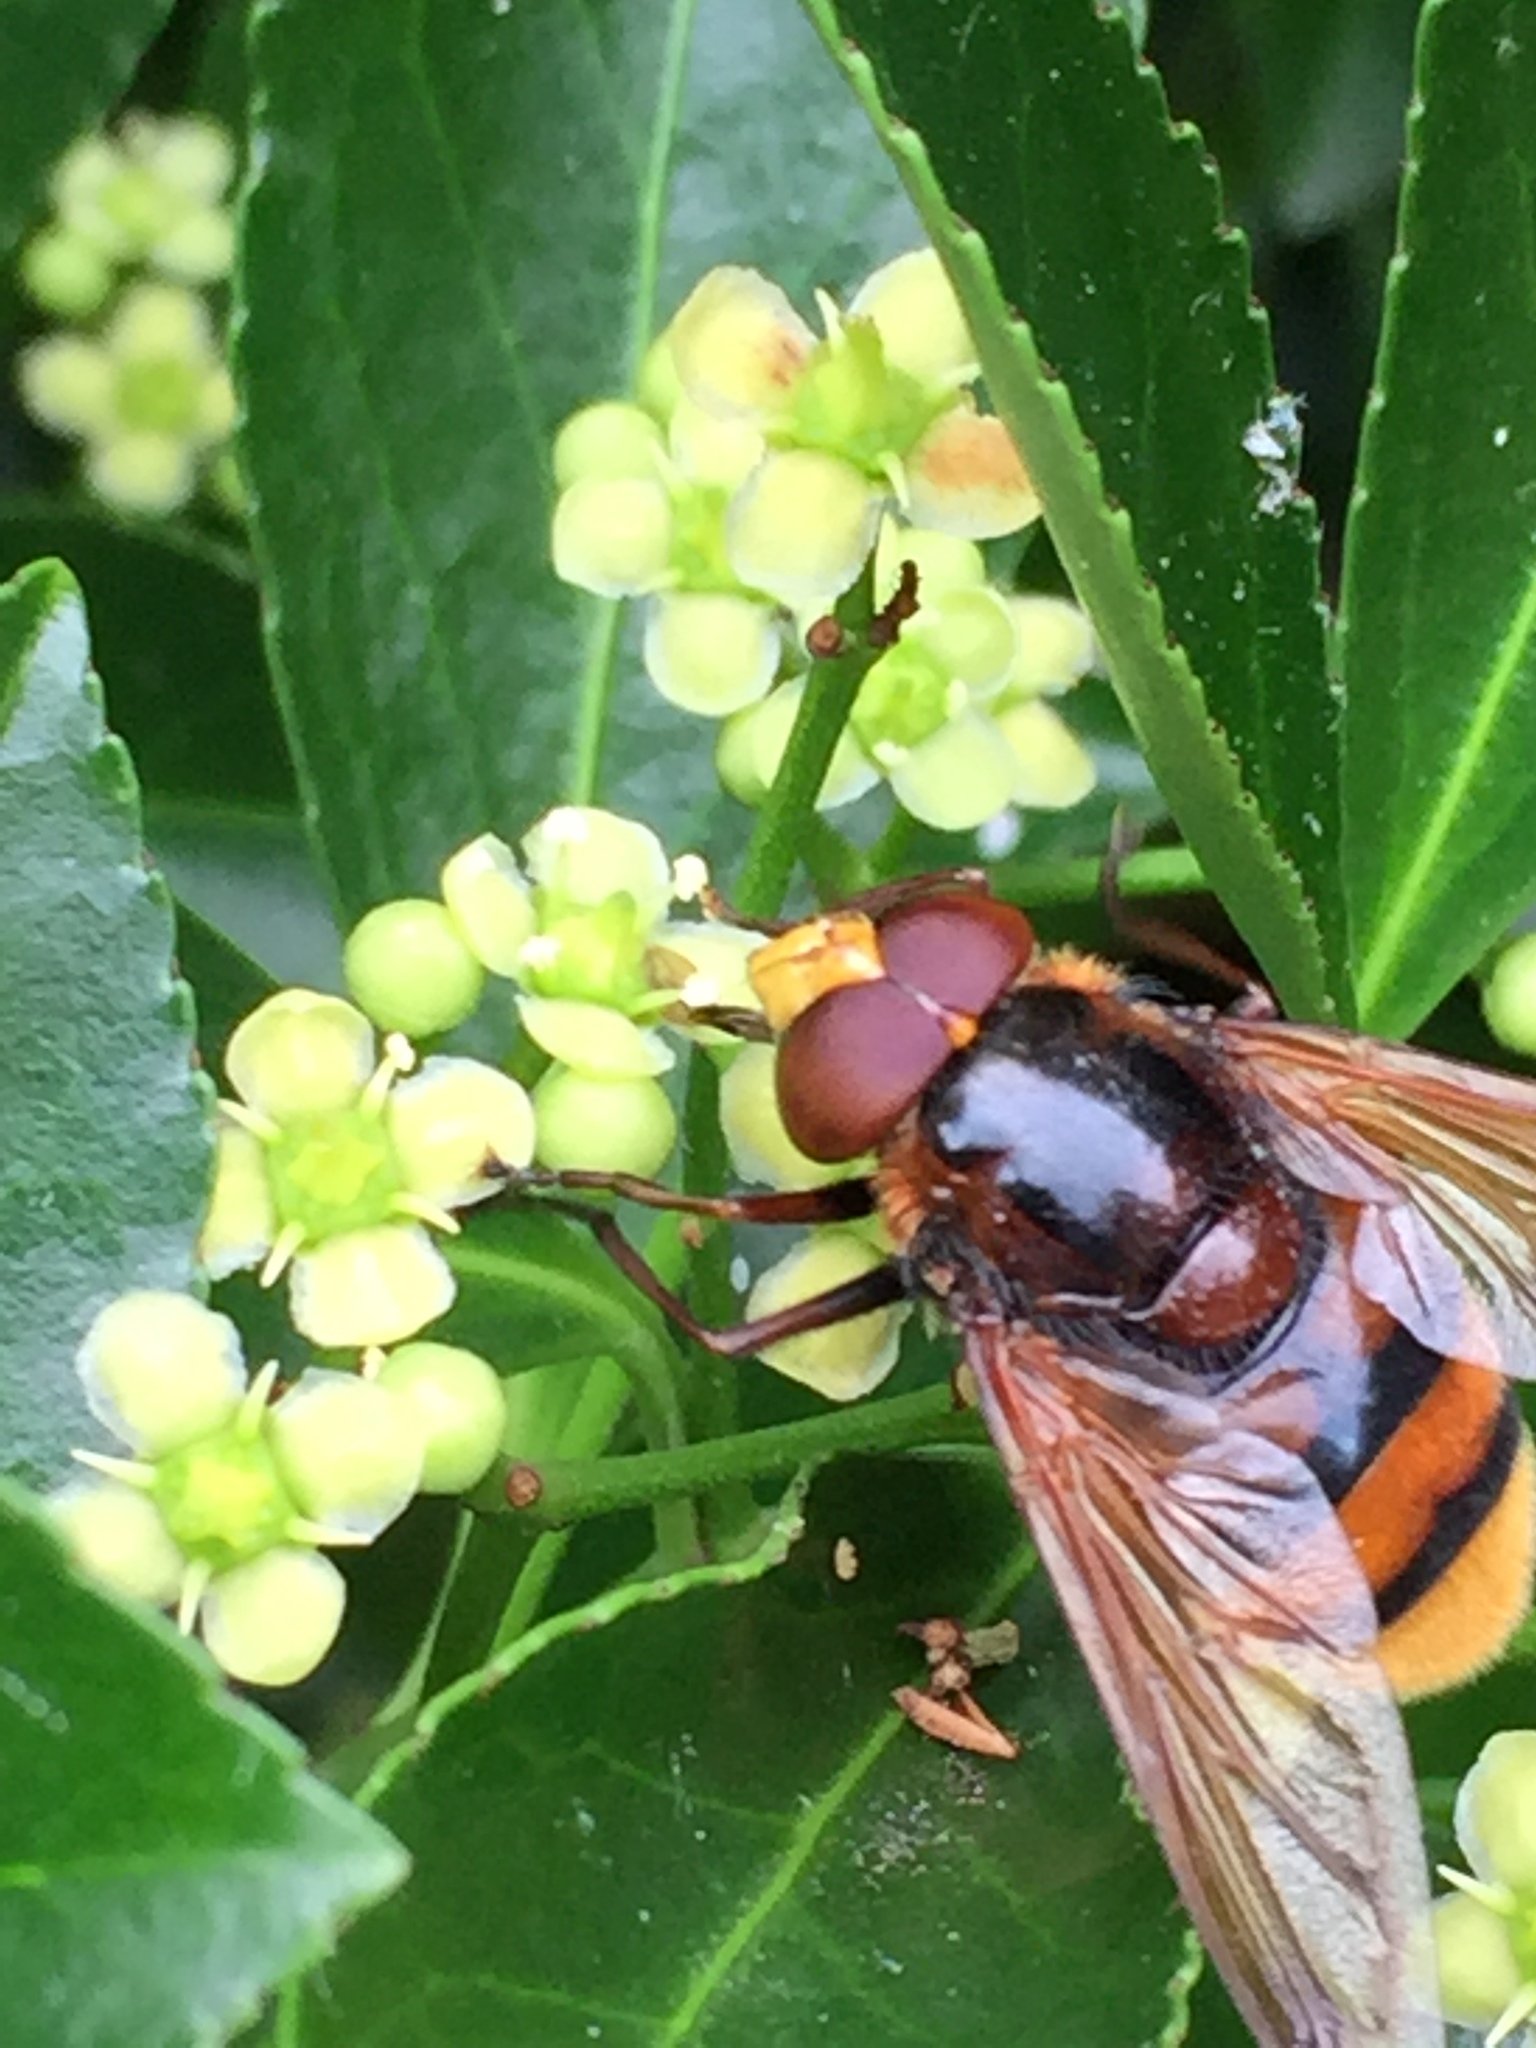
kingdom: Animalia
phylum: Arthropoda
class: Insecta
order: Diptera
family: Syrphidae
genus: Volucella
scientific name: Volucella zonaria
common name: Hornet hoverfly
